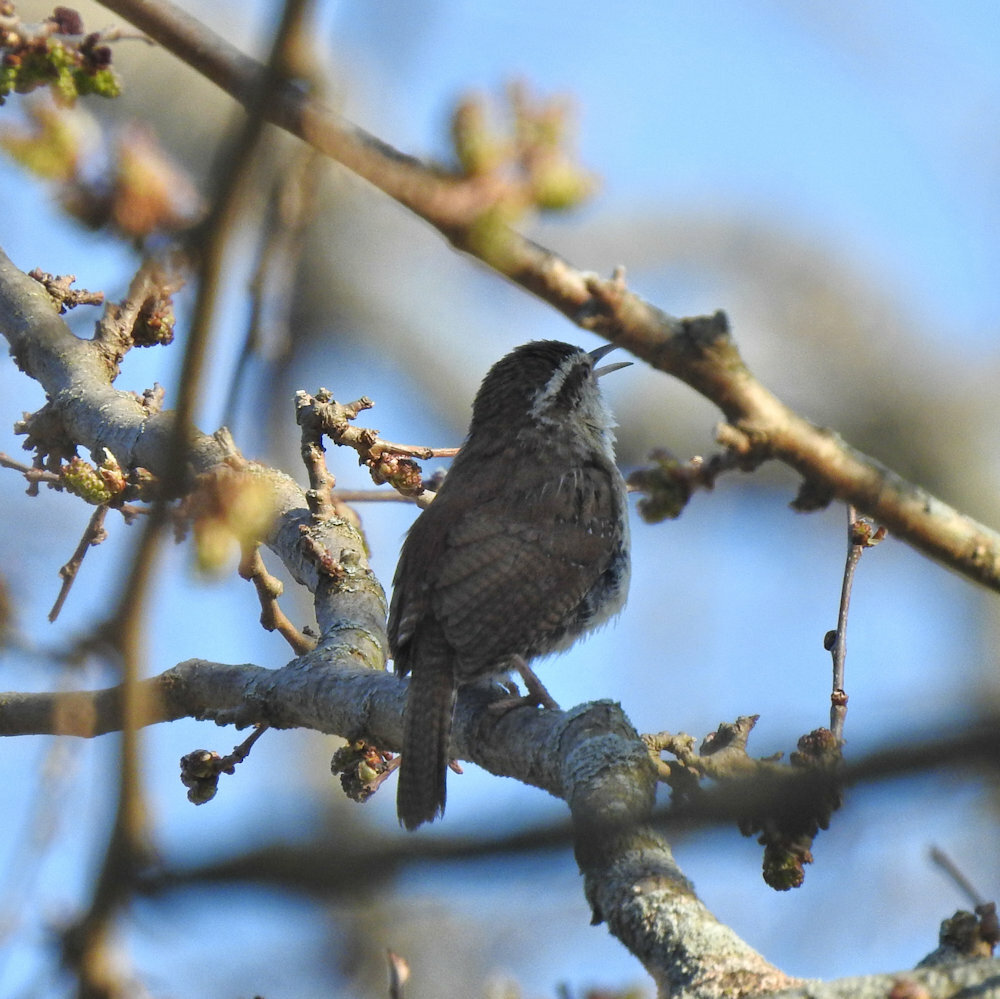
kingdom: Animalia
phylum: Chordata
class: Aves
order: Passeriformes
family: Troglodytidae
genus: Thryothorus
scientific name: Thryothorus ludovicianus
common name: Carolina wren
